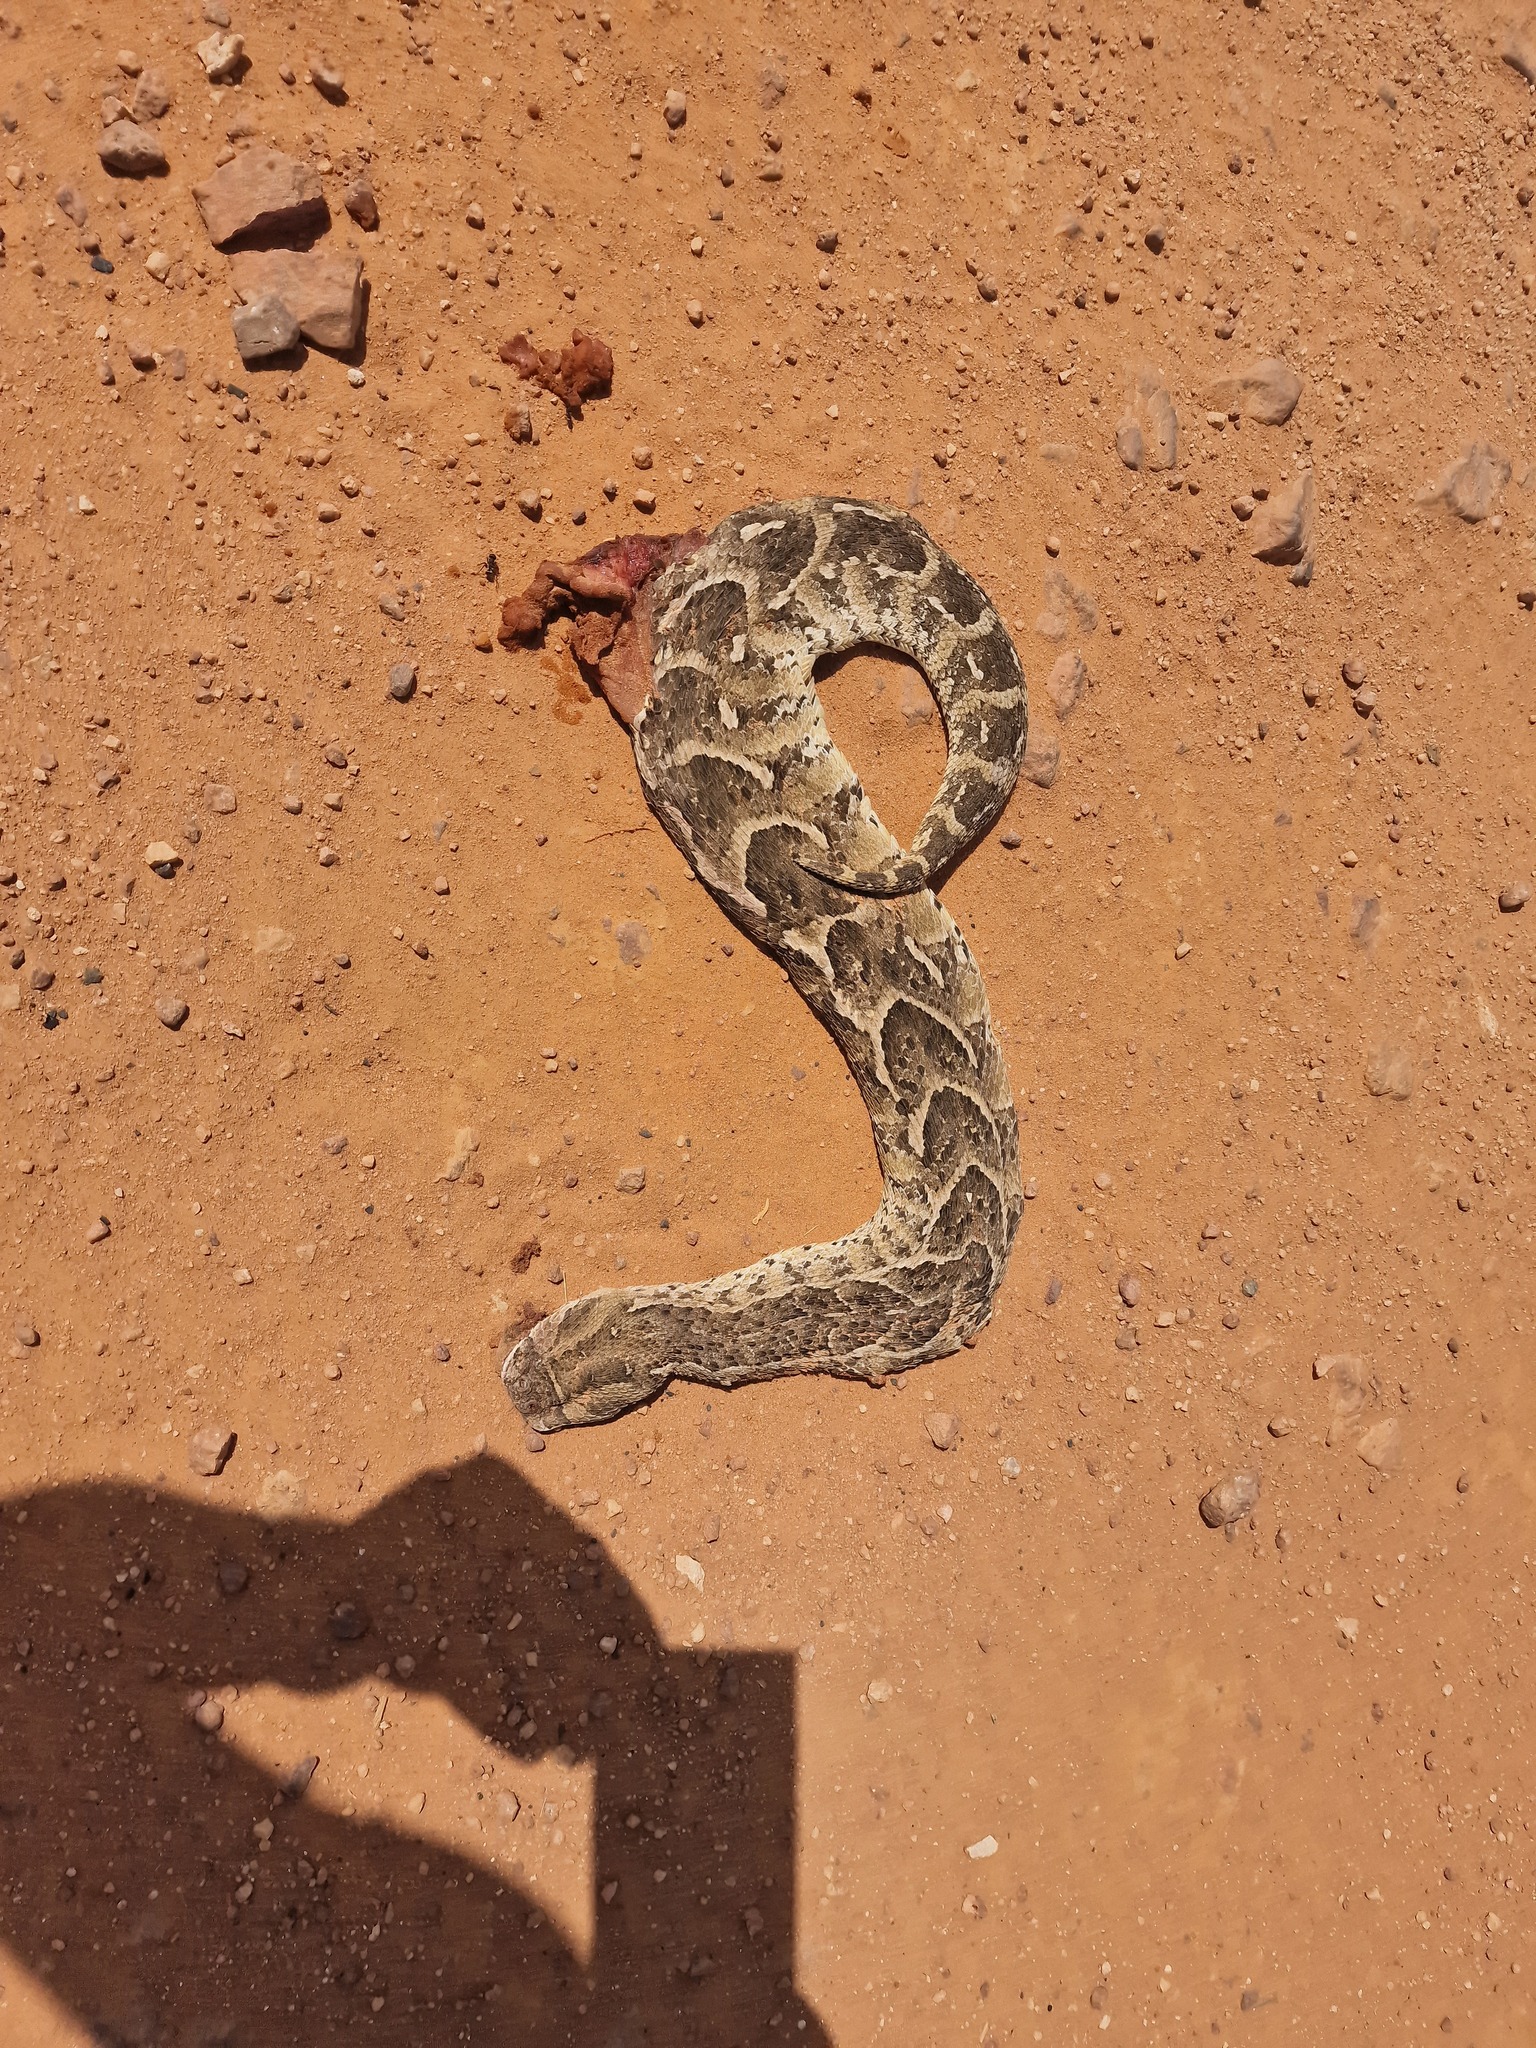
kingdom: Animalia
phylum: Chordata
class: Squamata
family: Viperidae
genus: Bitis
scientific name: Bitis arietans
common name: Puff adder
